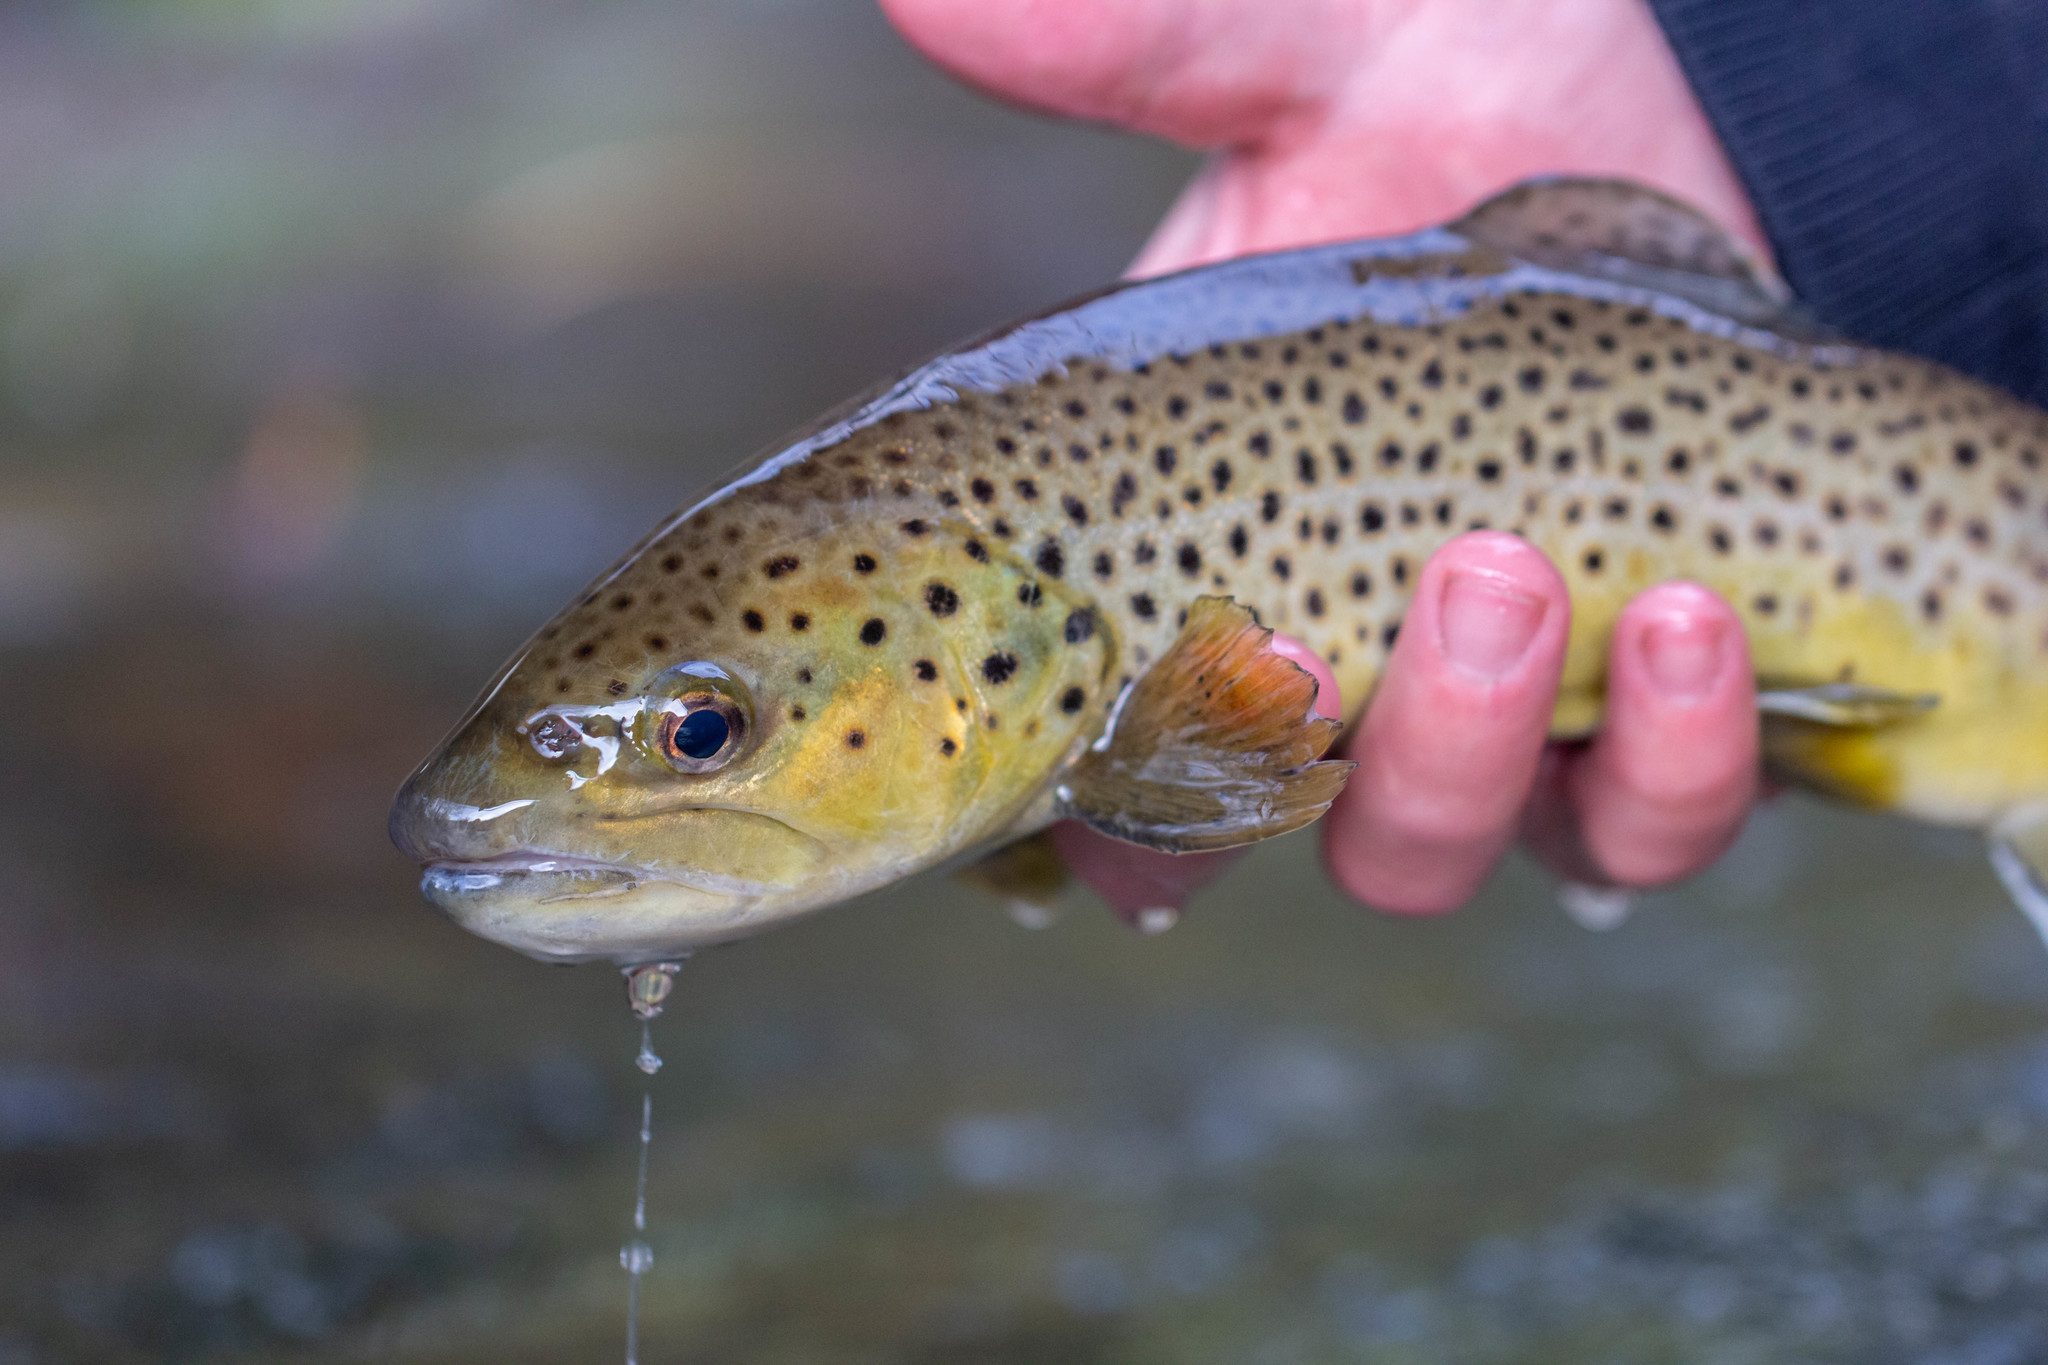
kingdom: Animalia
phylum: Chordata
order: Salmoniformes
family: Salmonidae
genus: Salmo
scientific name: Salmo trutta
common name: Brown trout
